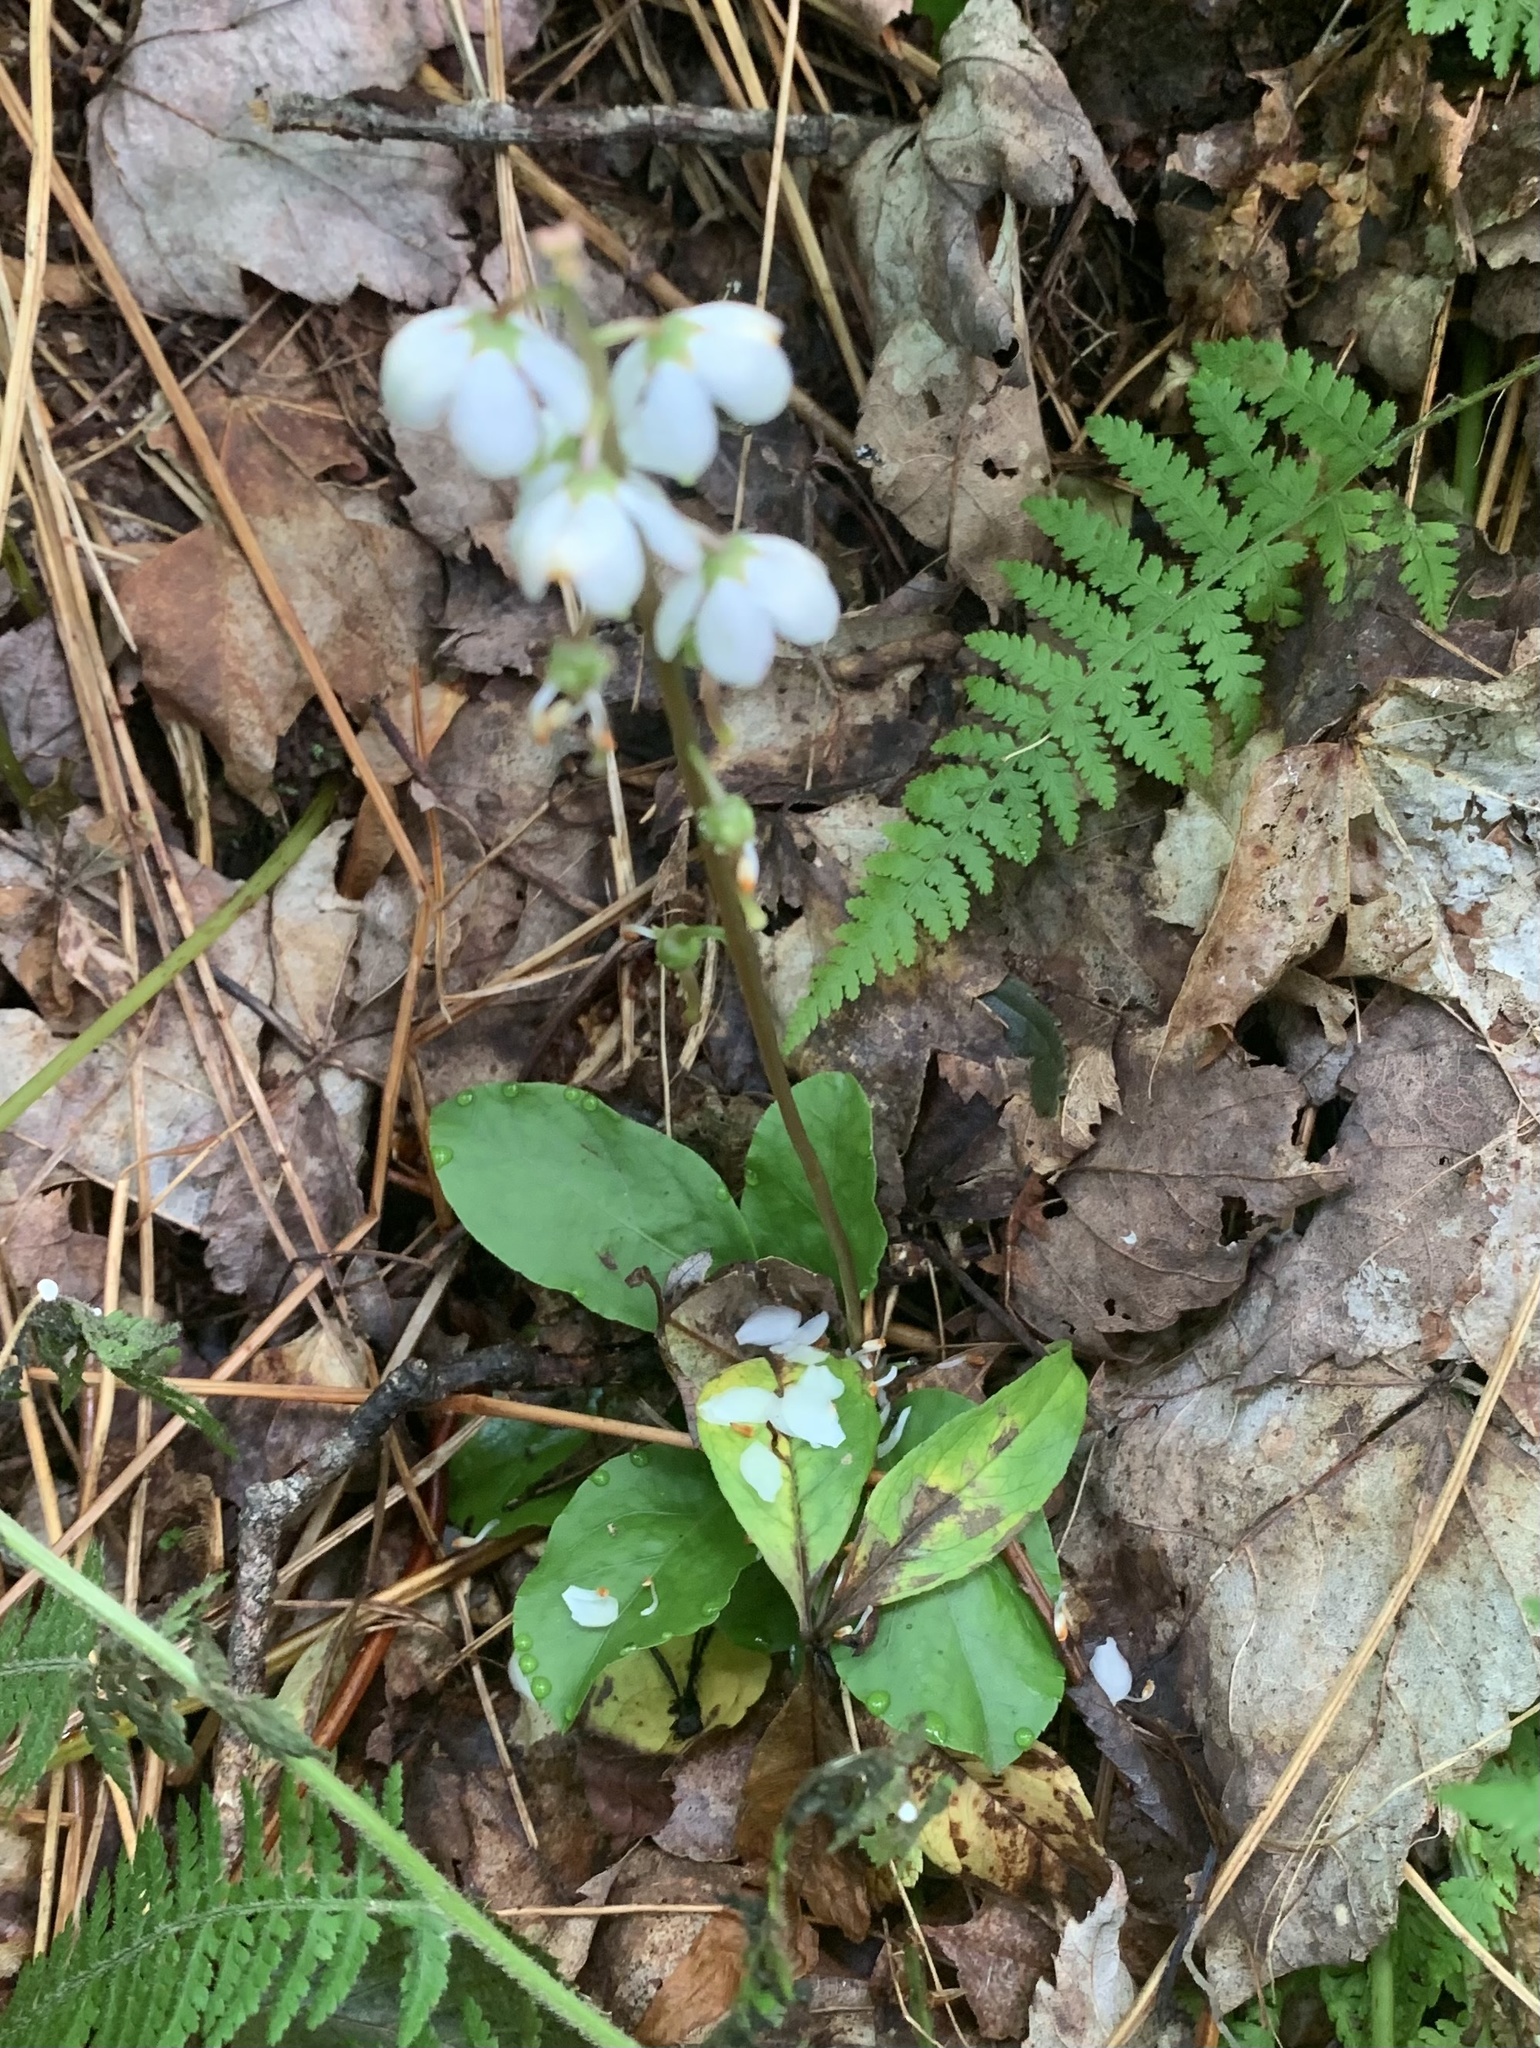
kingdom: Plantae
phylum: Tracheophyta
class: Magnoliopsida
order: Ericales
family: Ericaceae
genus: Pyrola
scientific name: Pyrola elliptica
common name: Shinleaf
